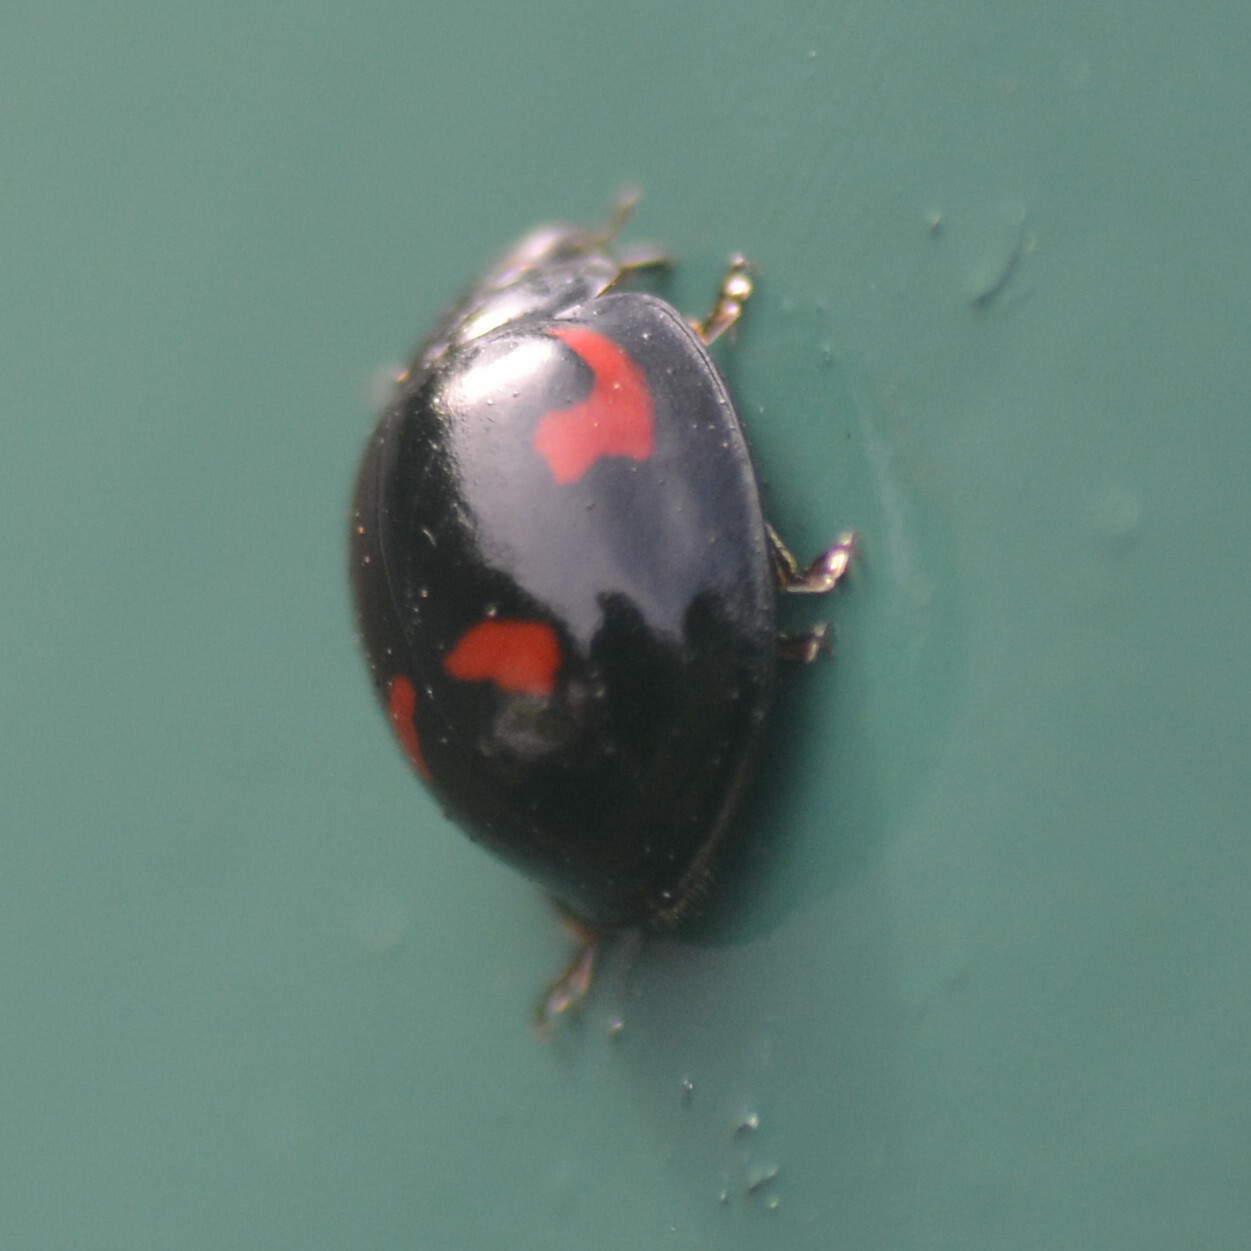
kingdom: Animalia
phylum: Arthropoda
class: Insecta
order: Coleoptera
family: Coccinellidae
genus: Brumus
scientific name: Brumus quadripustulatus
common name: Ladybird beetle
